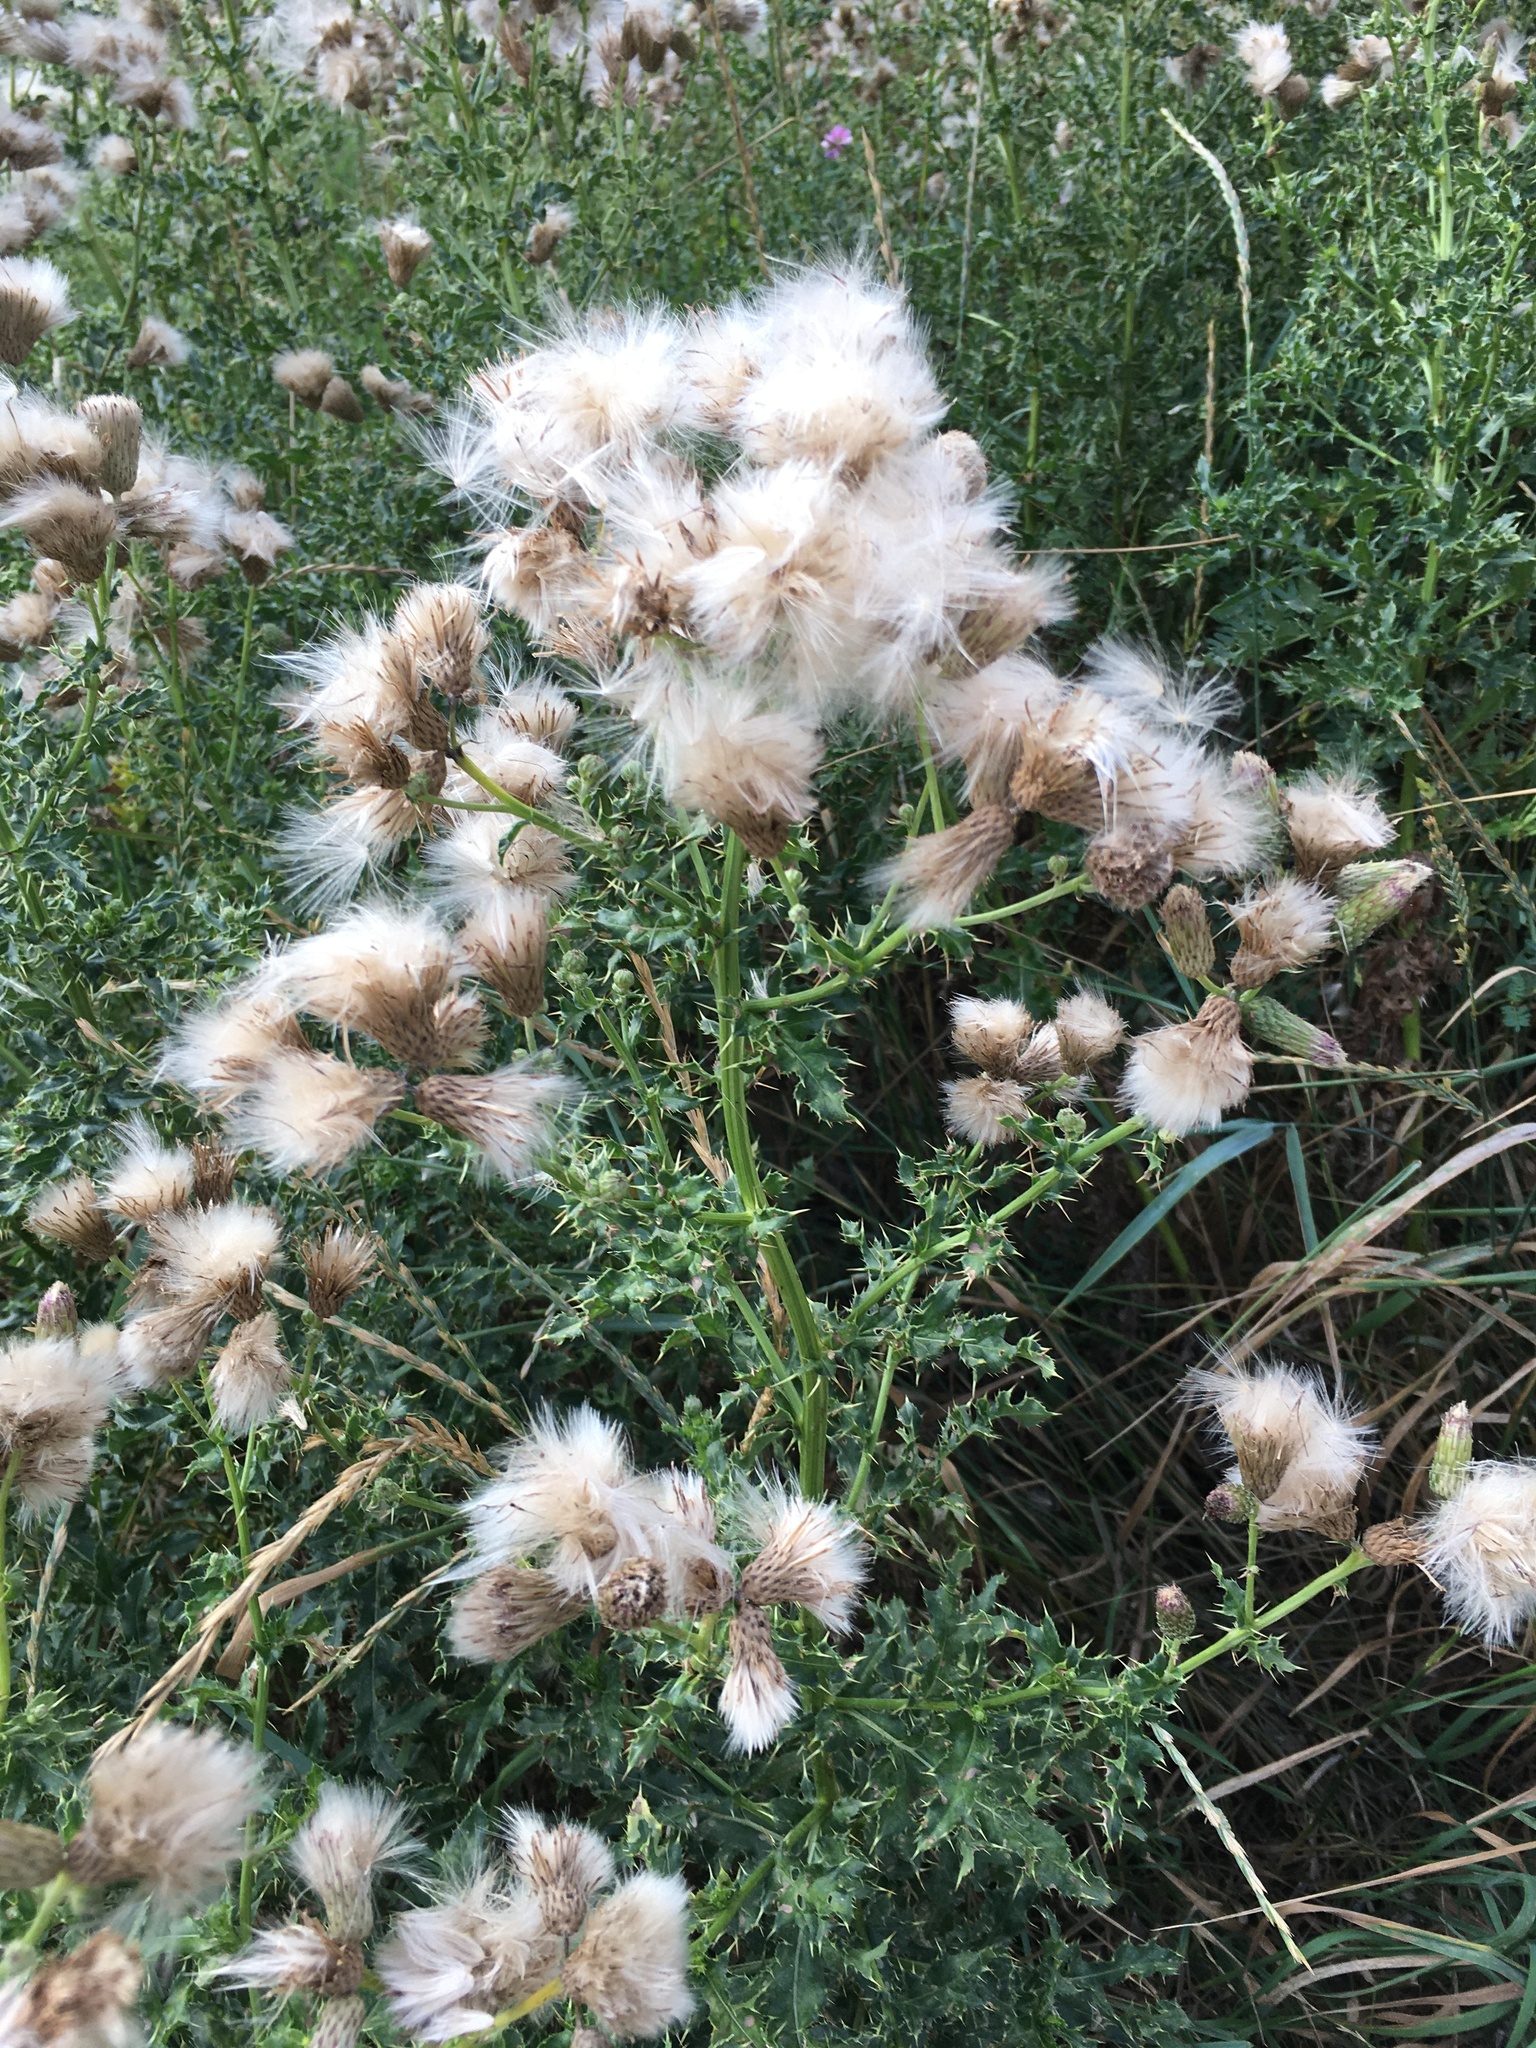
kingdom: Plantae
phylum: Tracheophyta
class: Magnoliopsida
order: Asterales
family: Asteraceae
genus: Cirsium
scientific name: Cirsium arvense
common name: Creeping thistle
